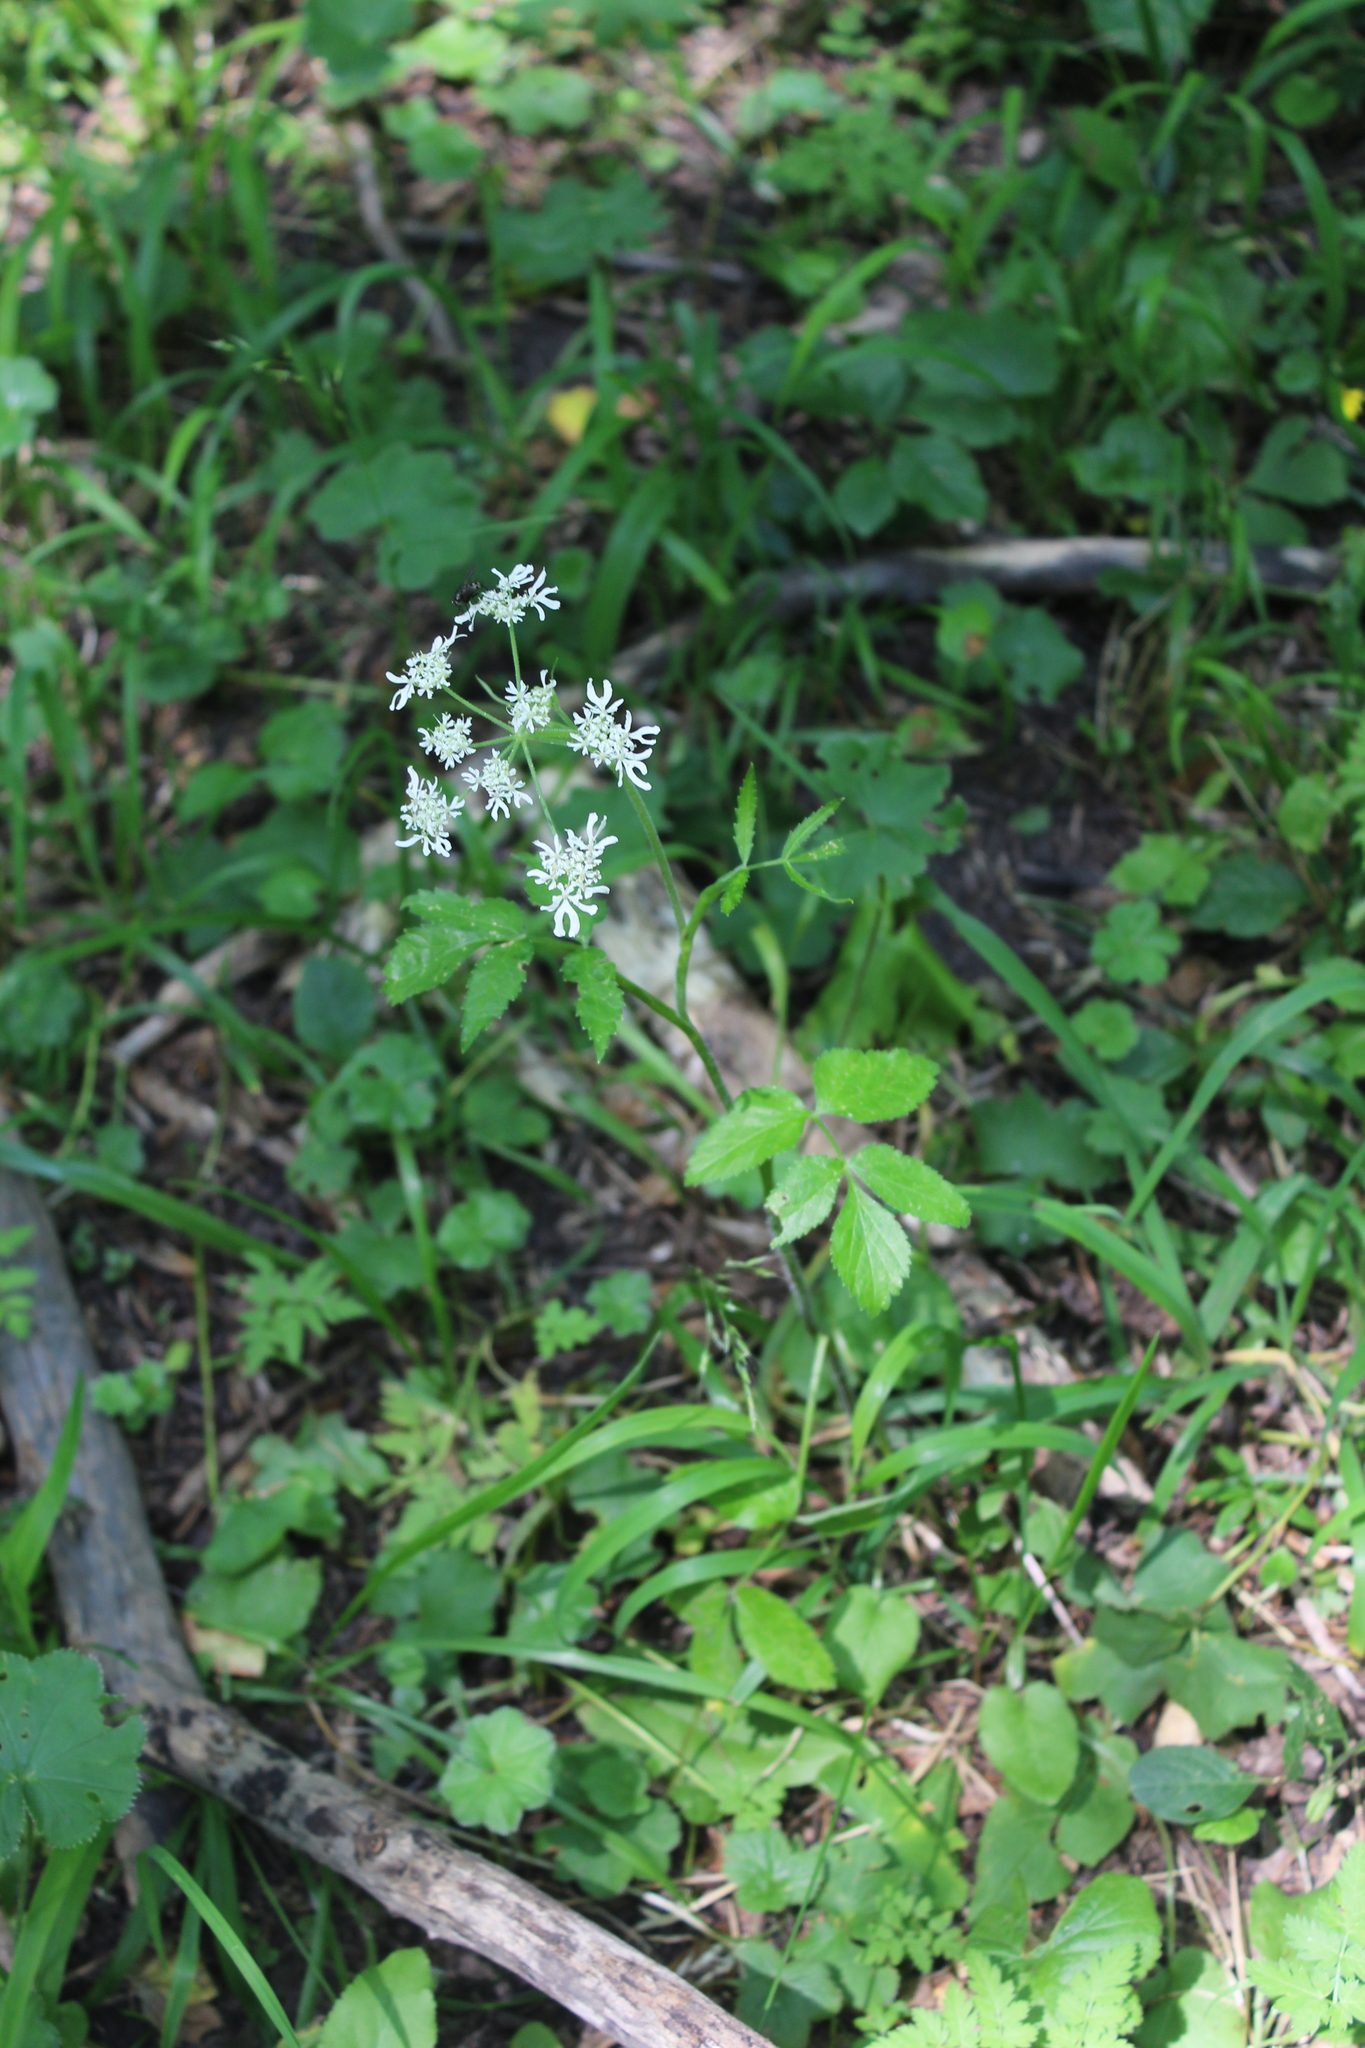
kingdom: Plantae
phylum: Tracheophyta
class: Magnoliopsida
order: Apiales
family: Apiaceae
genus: Heracleum
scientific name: Heracleum chorodanum
